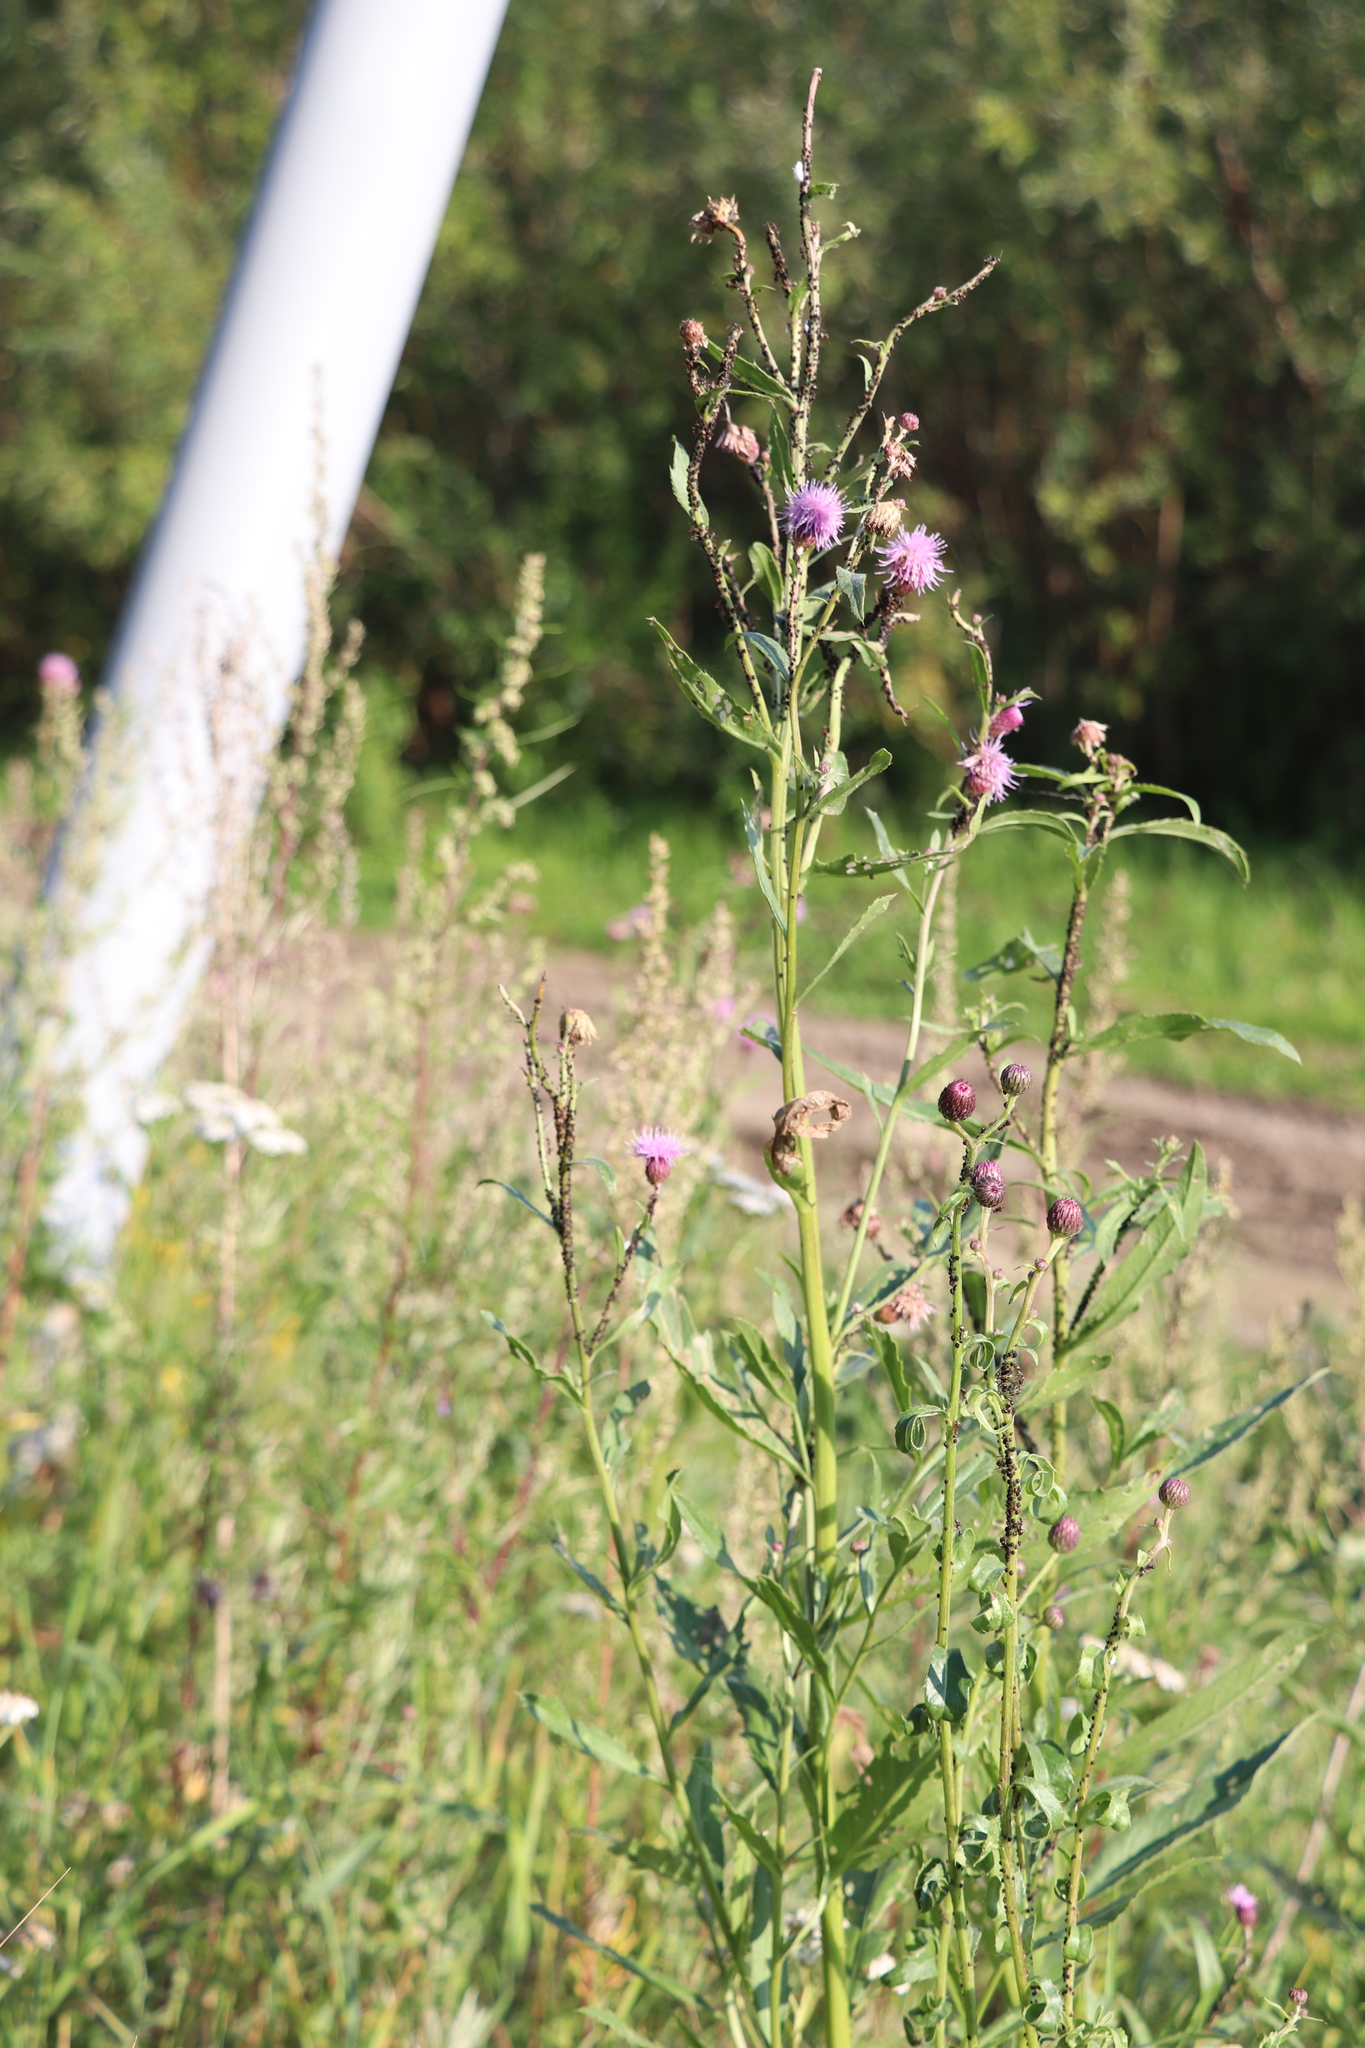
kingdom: Plantae
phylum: Tracheophyta
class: Magnoliopsida
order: Asterales
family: Asteraceae
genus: Cirsium
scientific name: Cirsium arvense
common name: Creeping thistle
